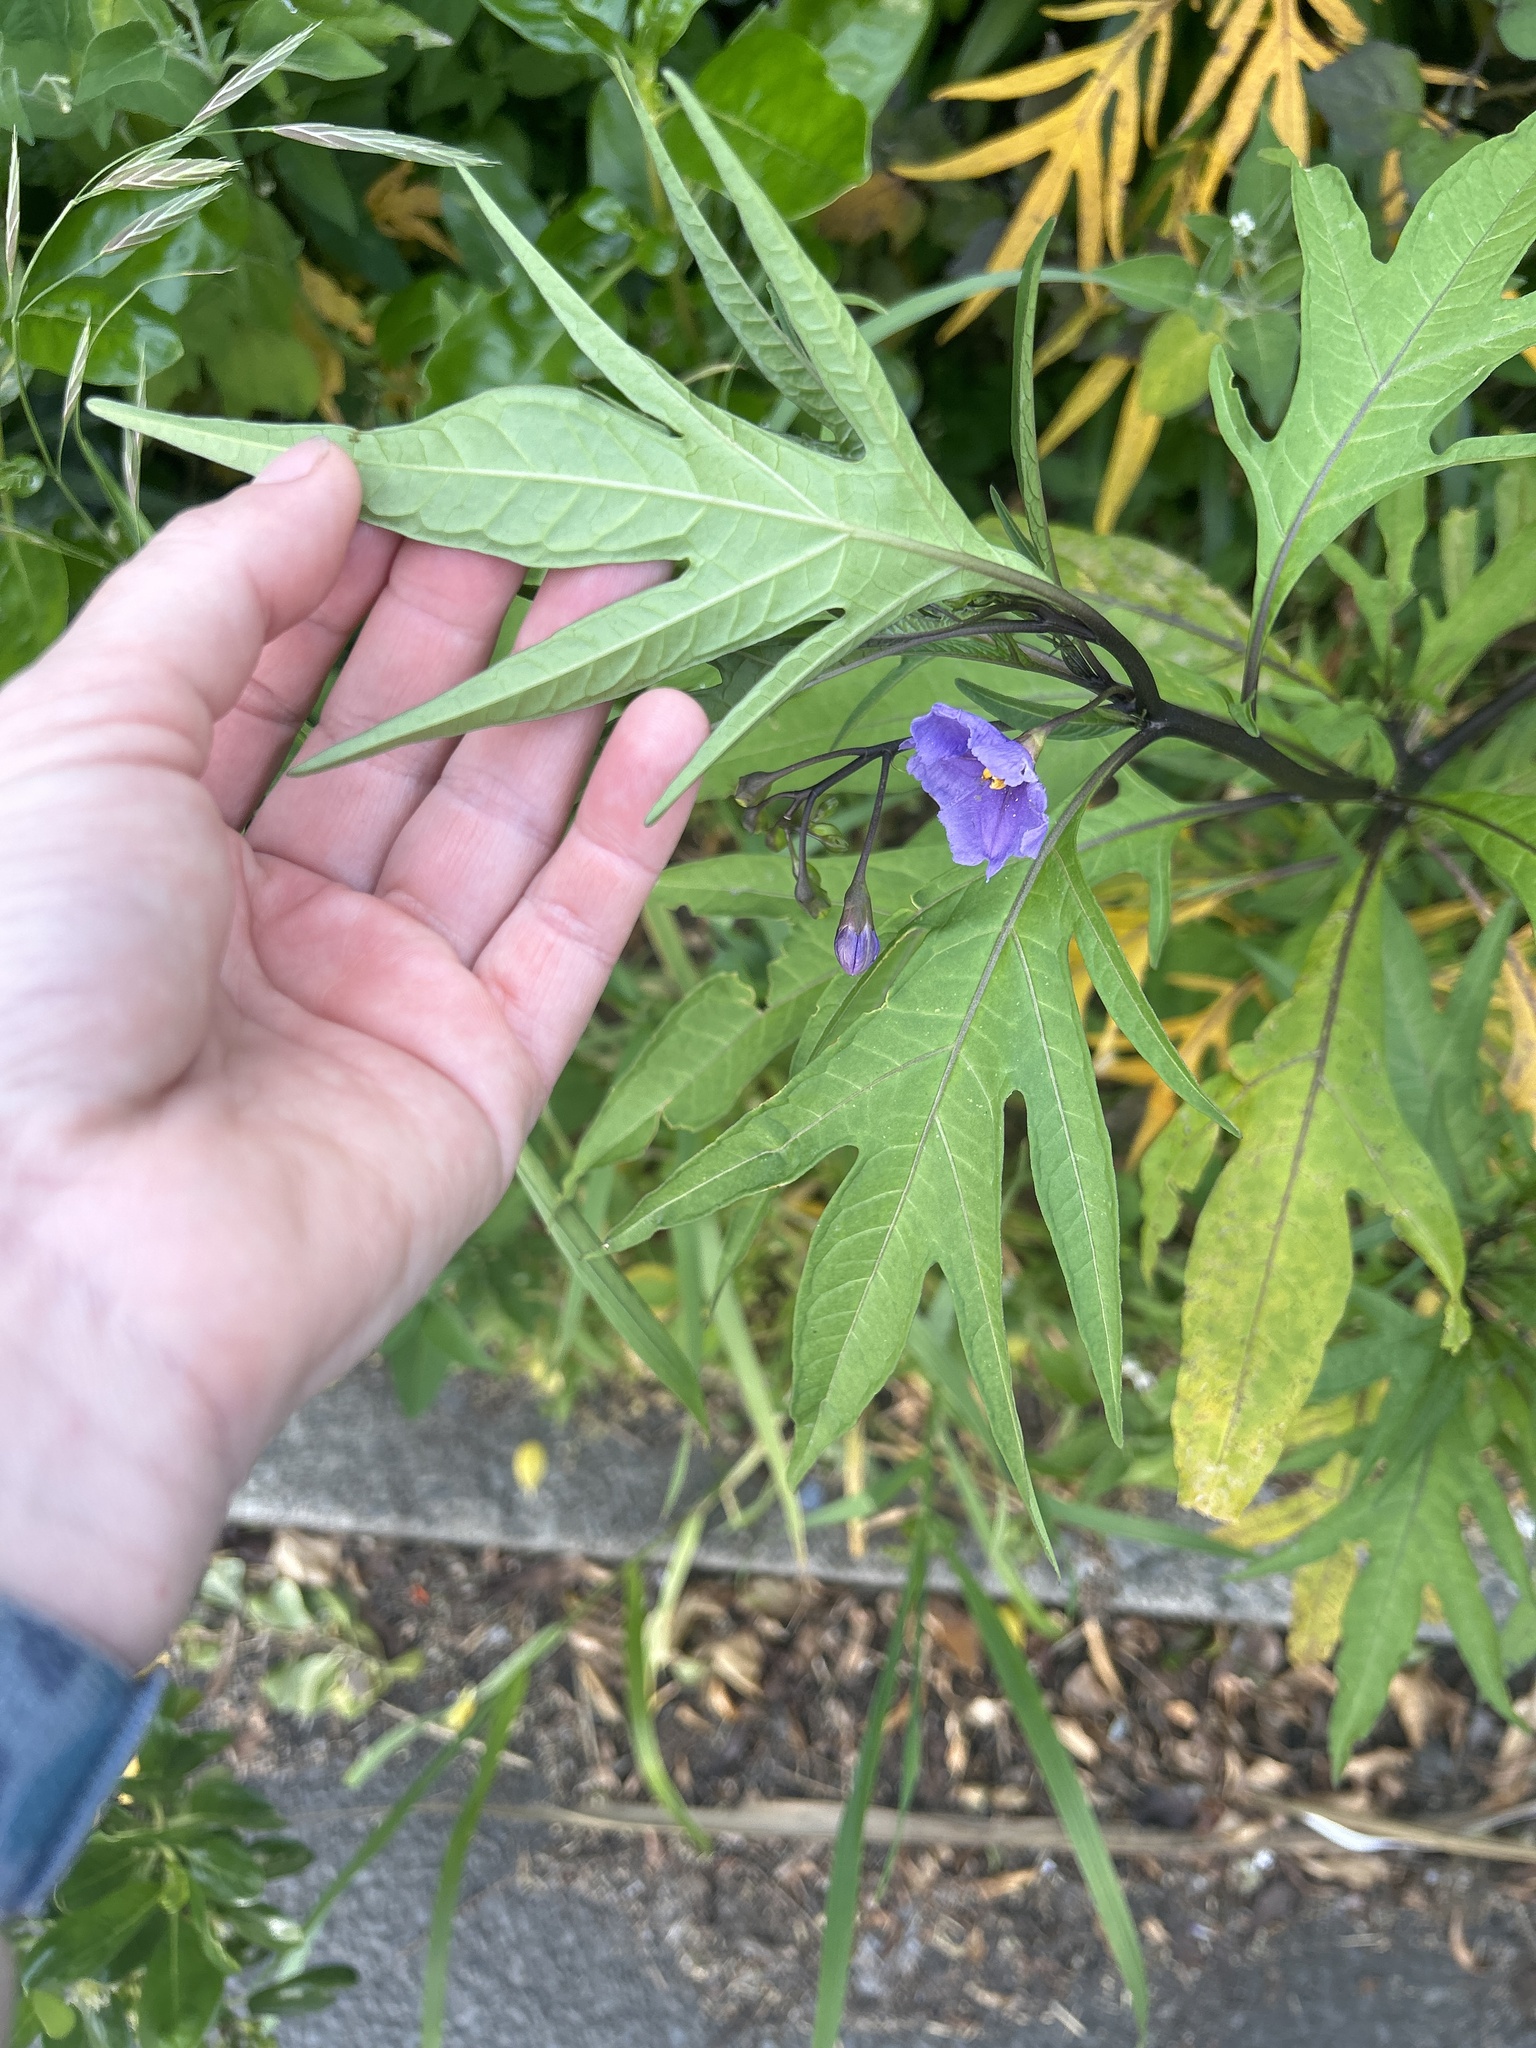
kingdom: Plantae
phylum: Tracheophyta
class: Magnoliopsida
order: Solanales
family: Solanaceae
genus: Solanum
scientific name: Solanum laciniatum
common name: Kangaroo-apple
